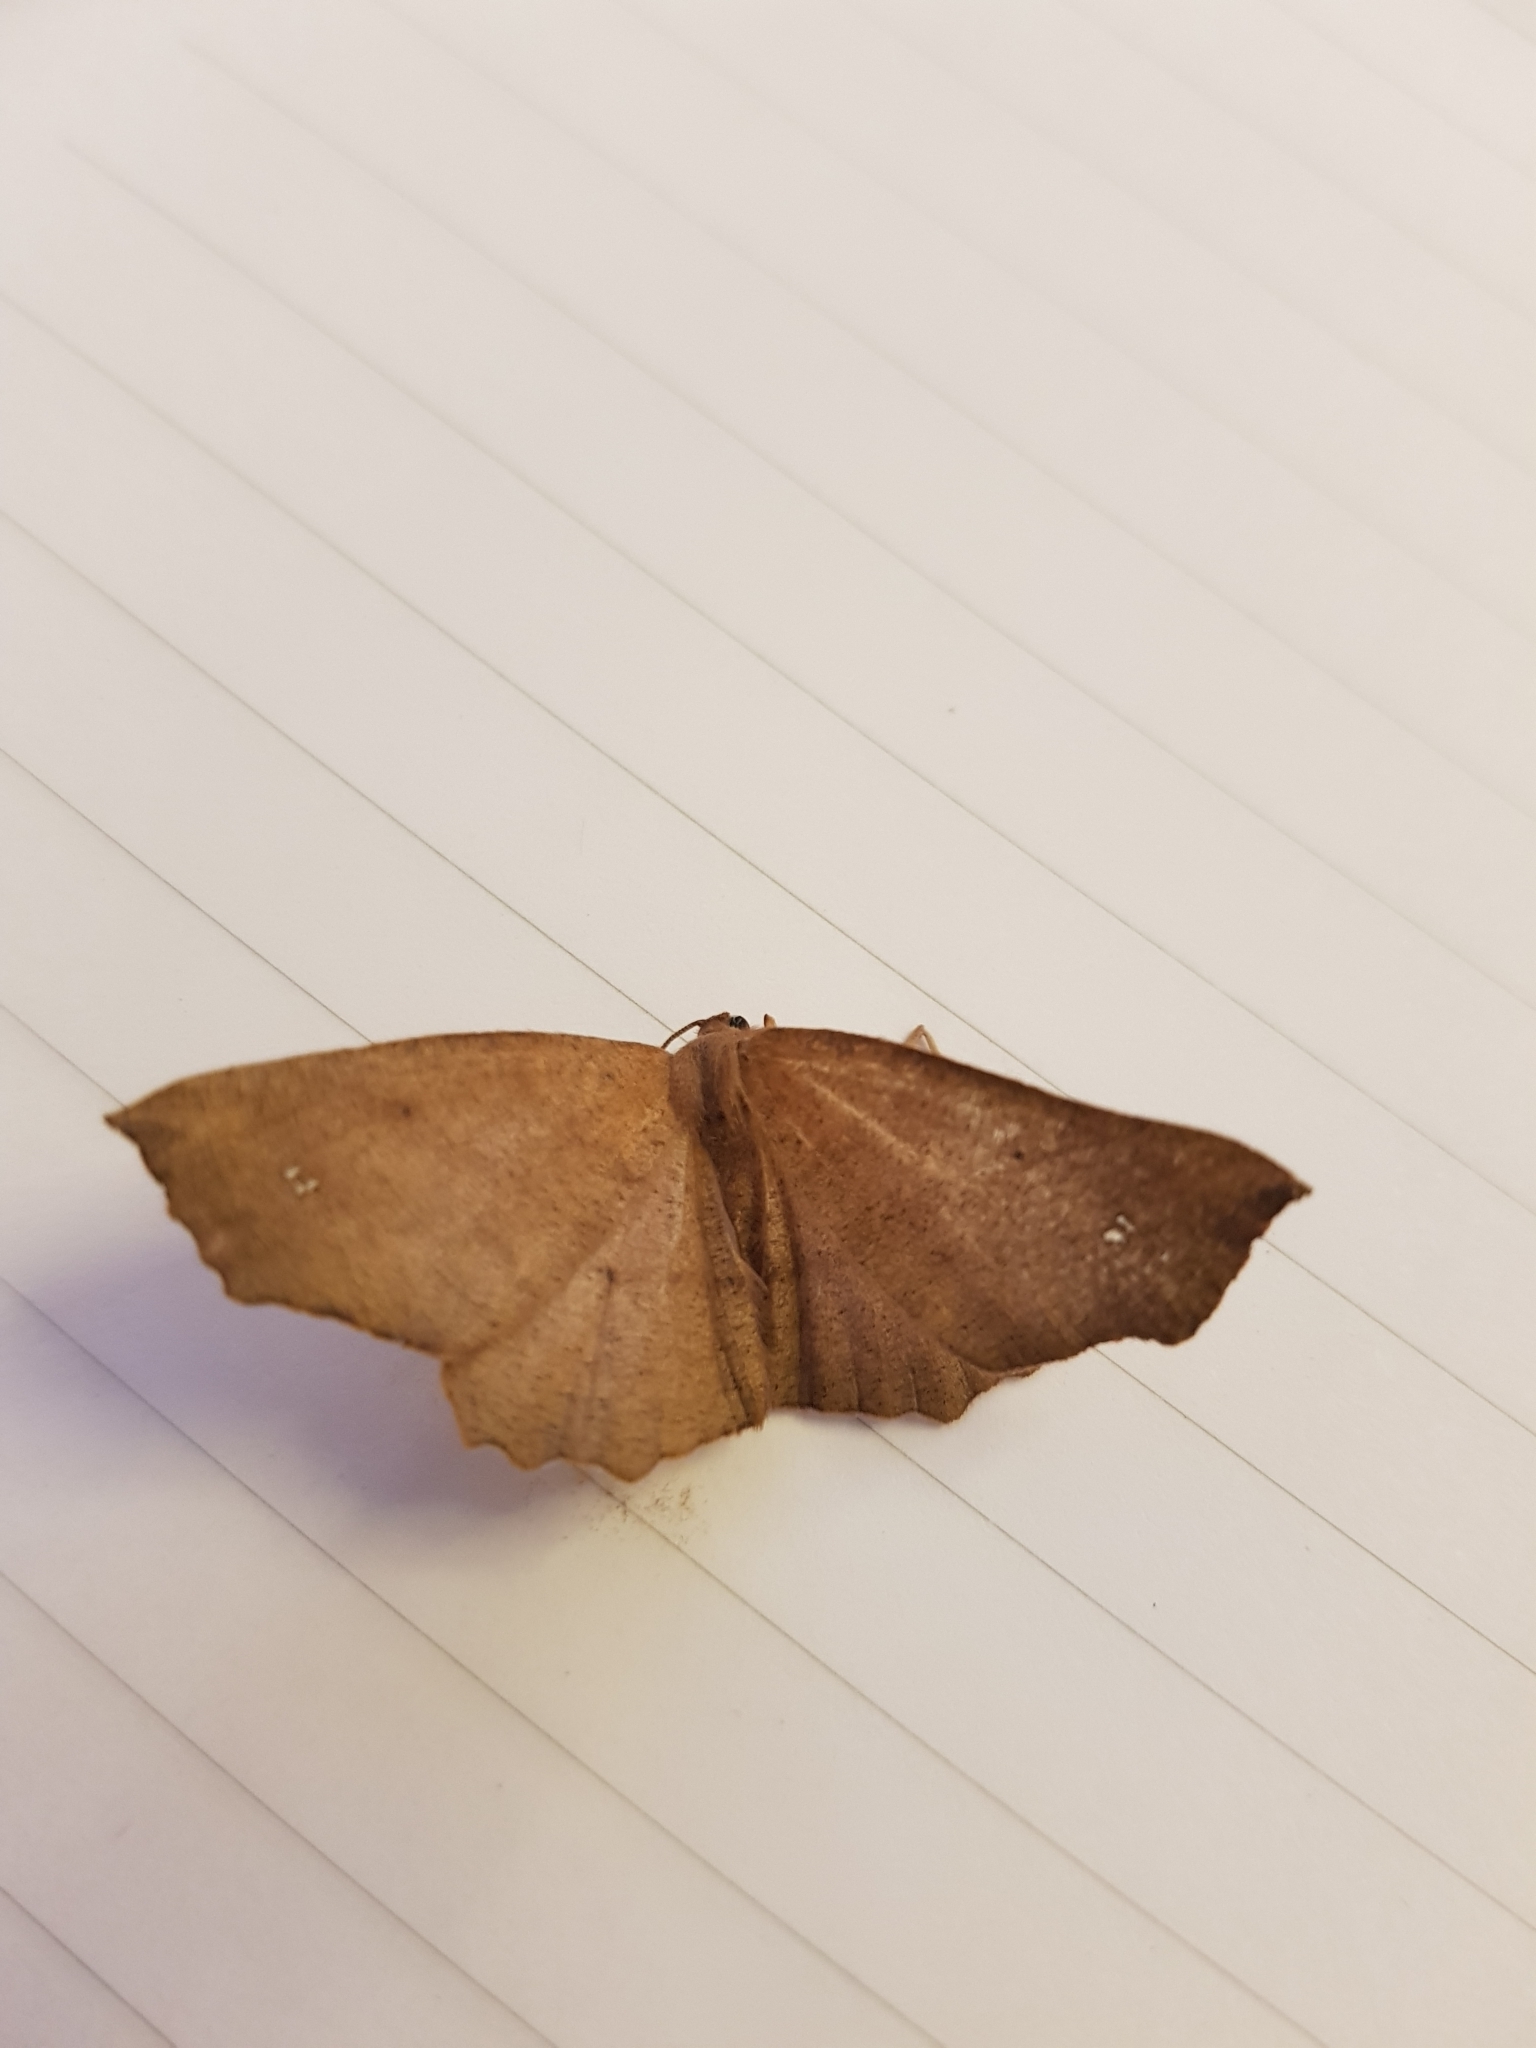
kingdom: Animalia
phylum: Arthropoda
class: Insecta
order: Lepidoptera
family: Geometridae
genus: Xyridacma
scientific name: Xyridacma ustaria
